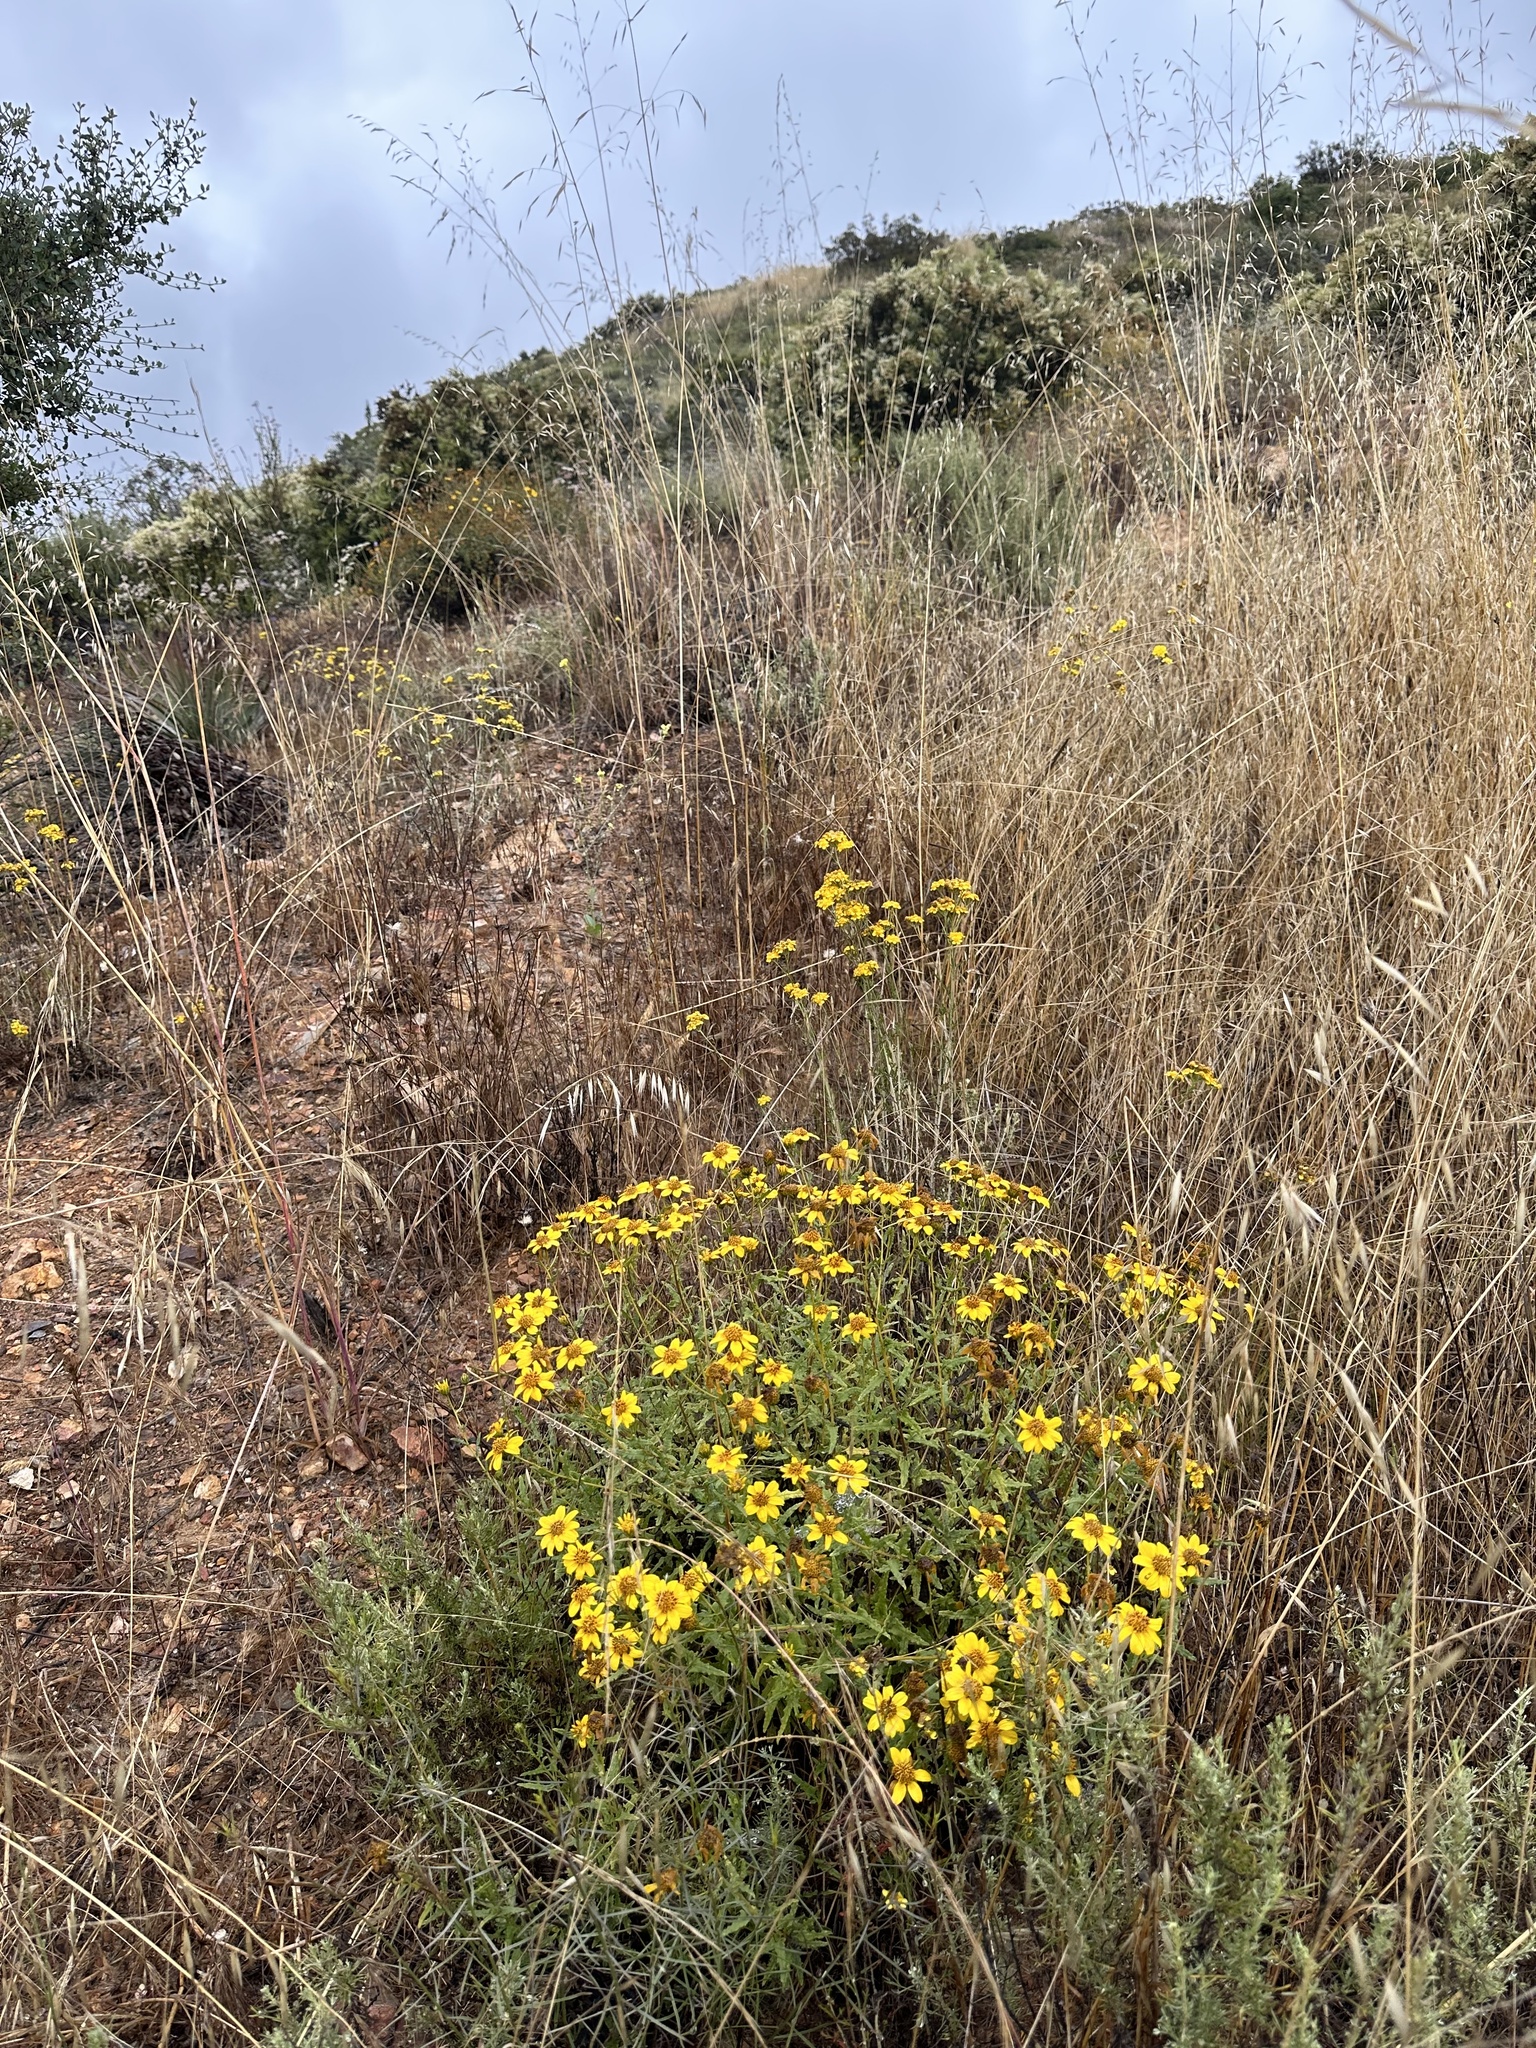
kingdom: Plantae
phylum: Tracheophyta
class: Magnoliopsida
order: Asterales
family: Asteraceae
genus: Bahiopsis
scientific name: Bahiopsis laciniata
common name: San diego county viguiera
